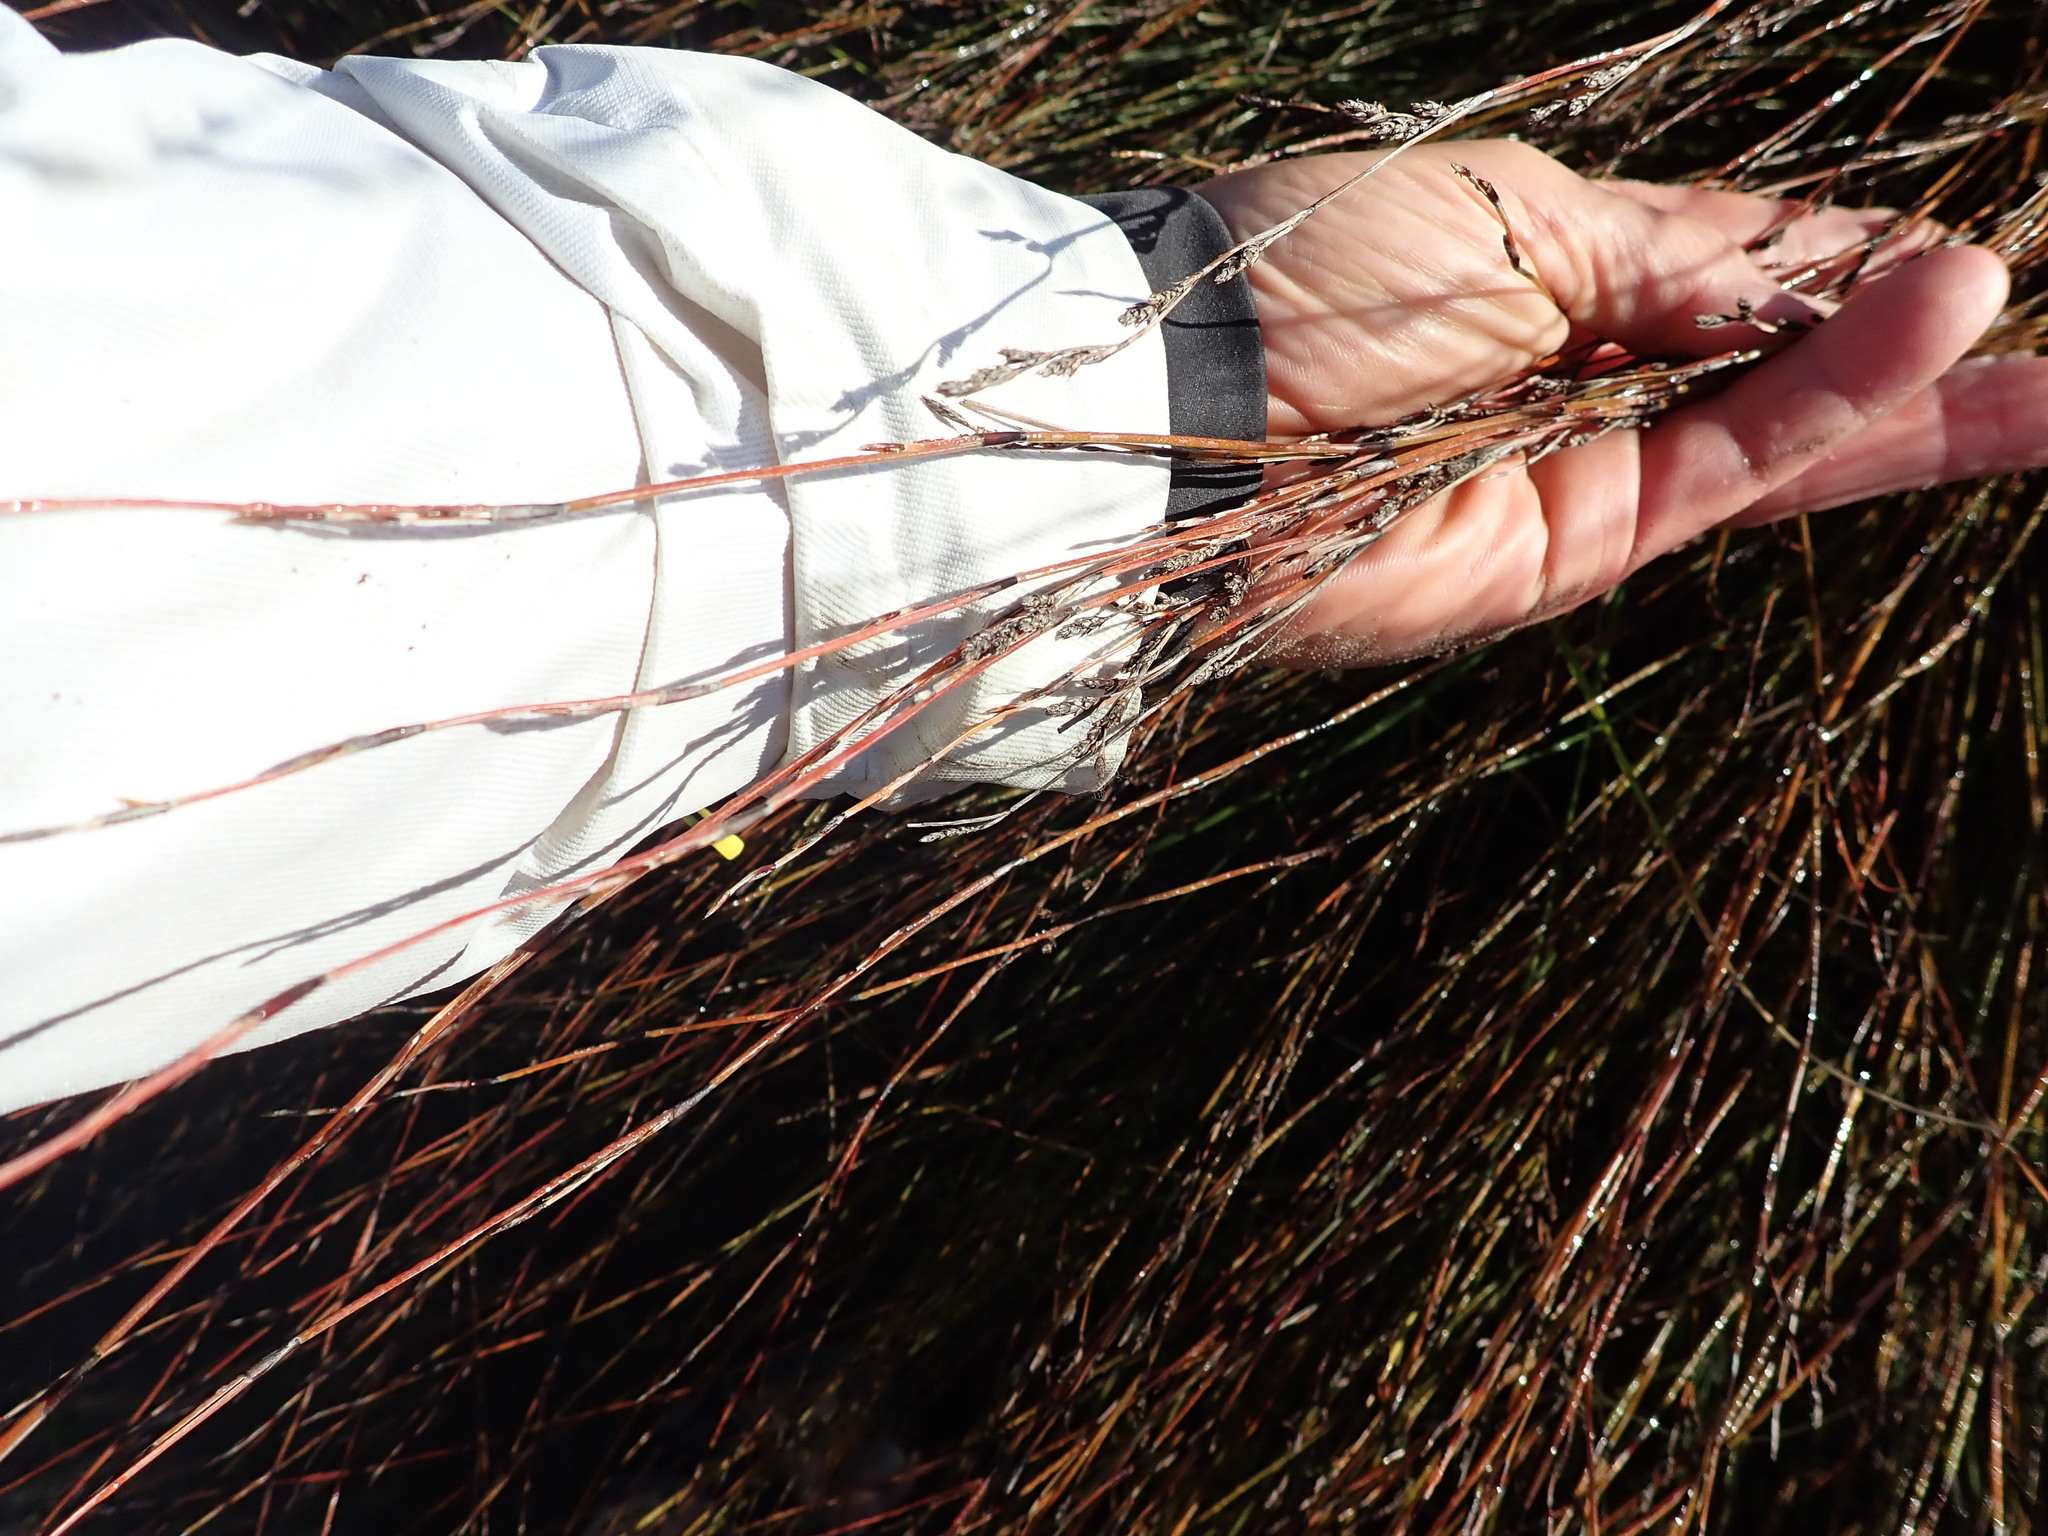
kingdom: Plantae
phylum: Tracheophyta
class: Liliopsida
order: Poales
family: Restionaceae
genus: Apodasmia
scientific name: Apodasmia similis
